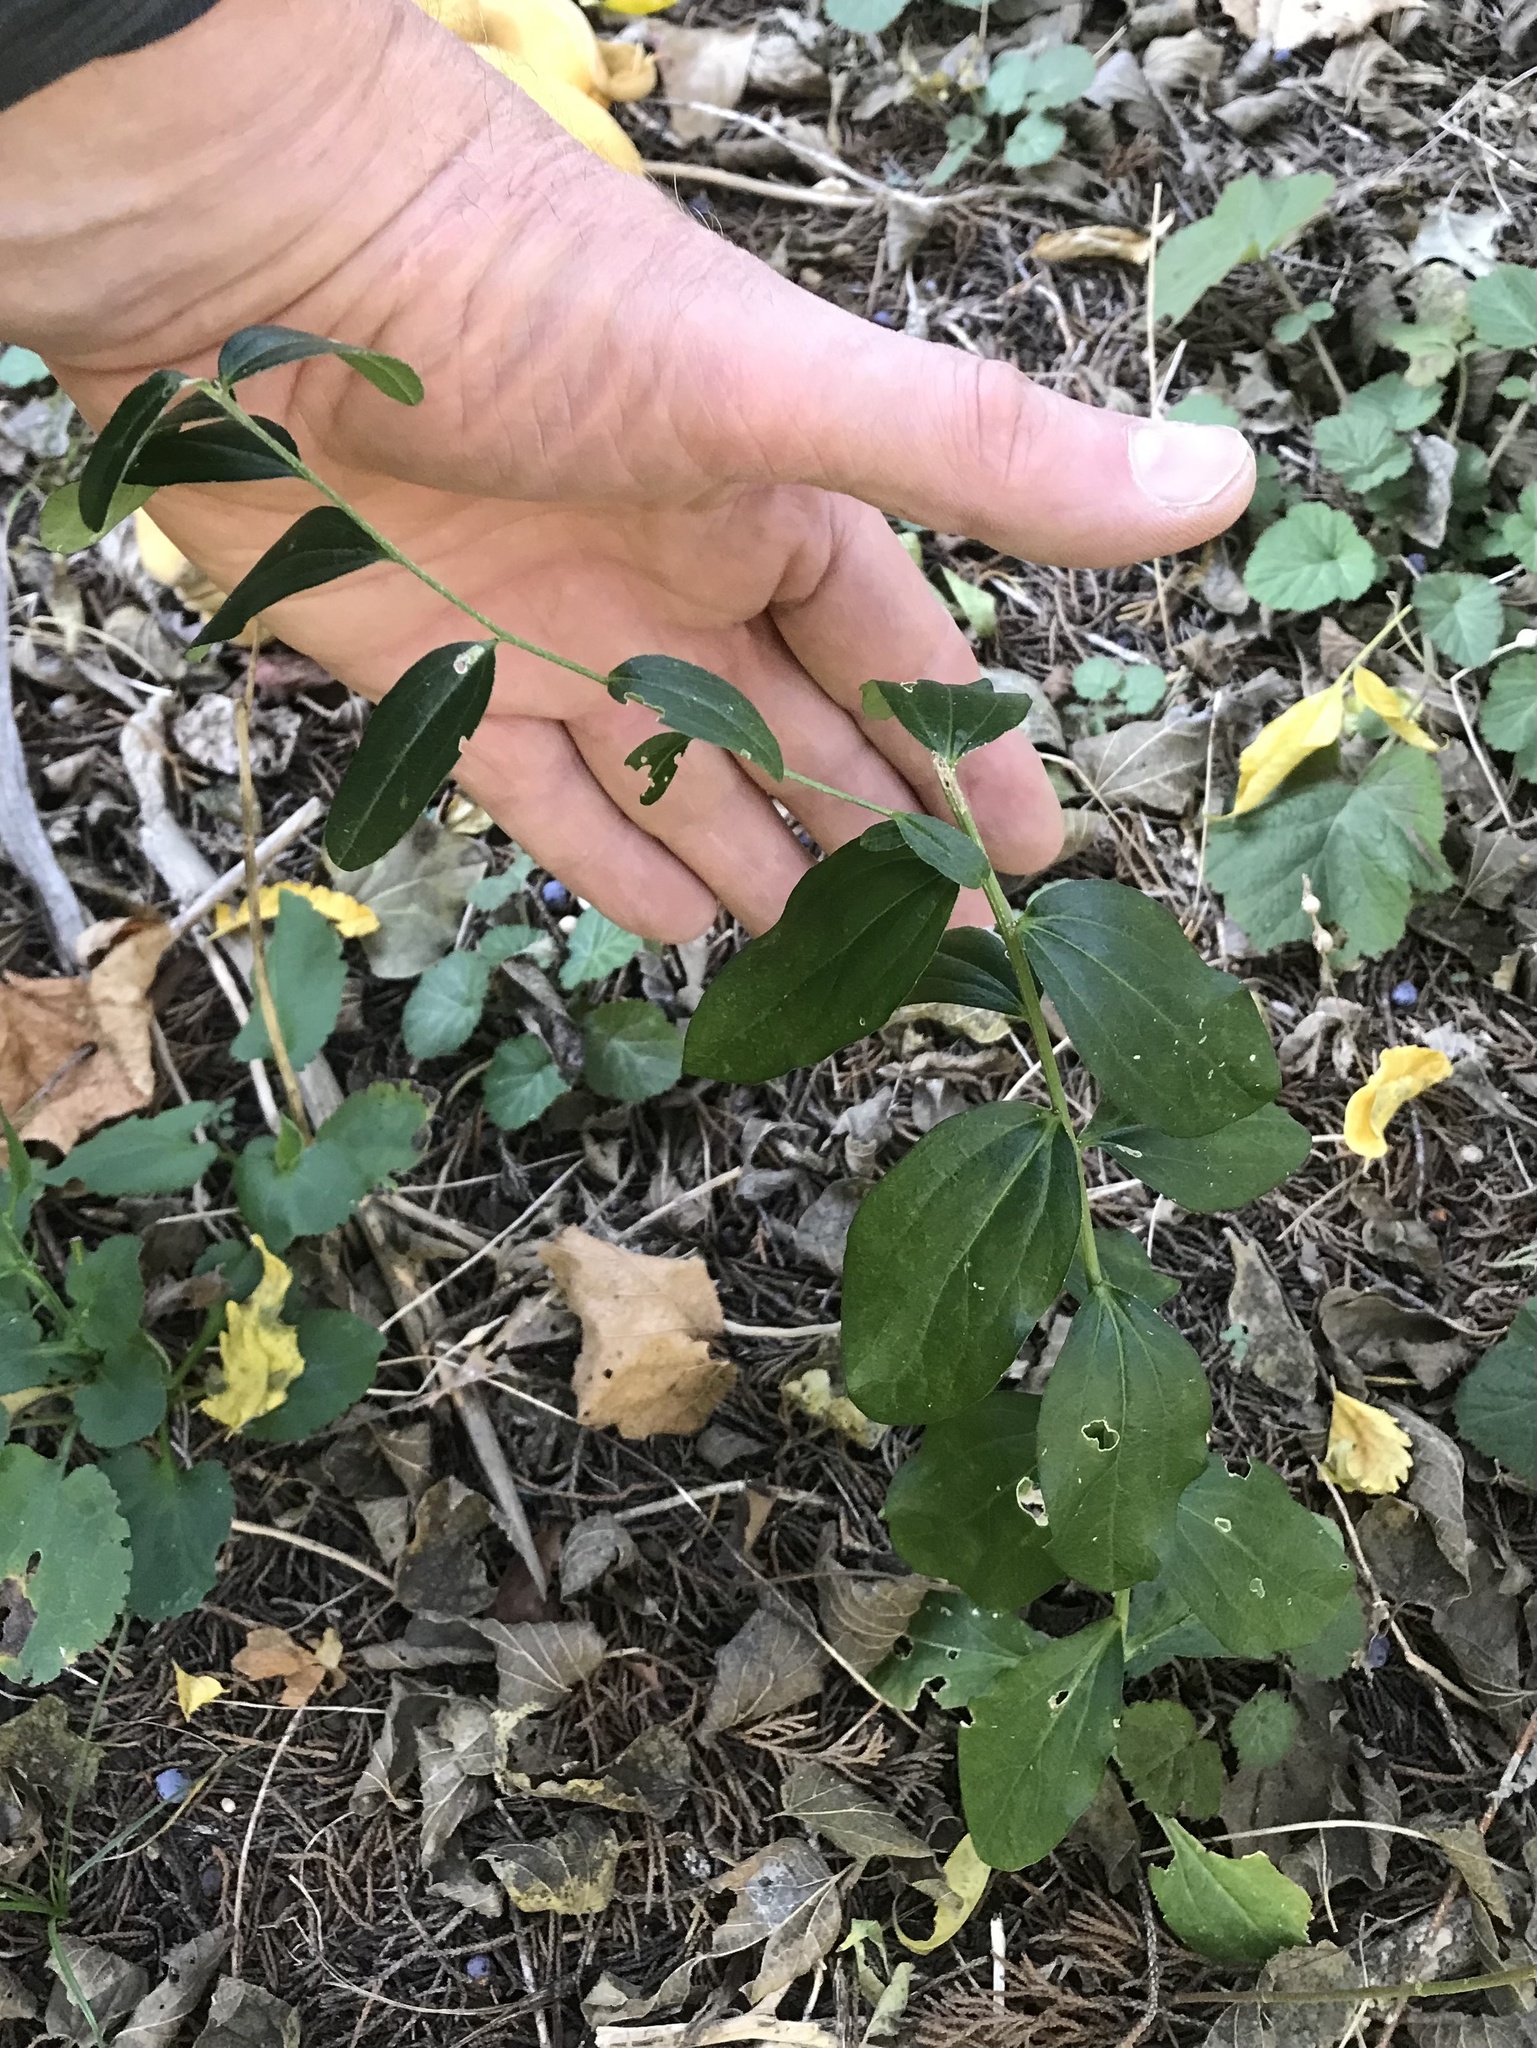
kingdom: Plantae
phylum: Tracheophyta
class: Magnoliopsida
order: Malpighiales
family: Euphorbiaceae
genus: Ditaxis
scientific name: Ditaxis humilis
